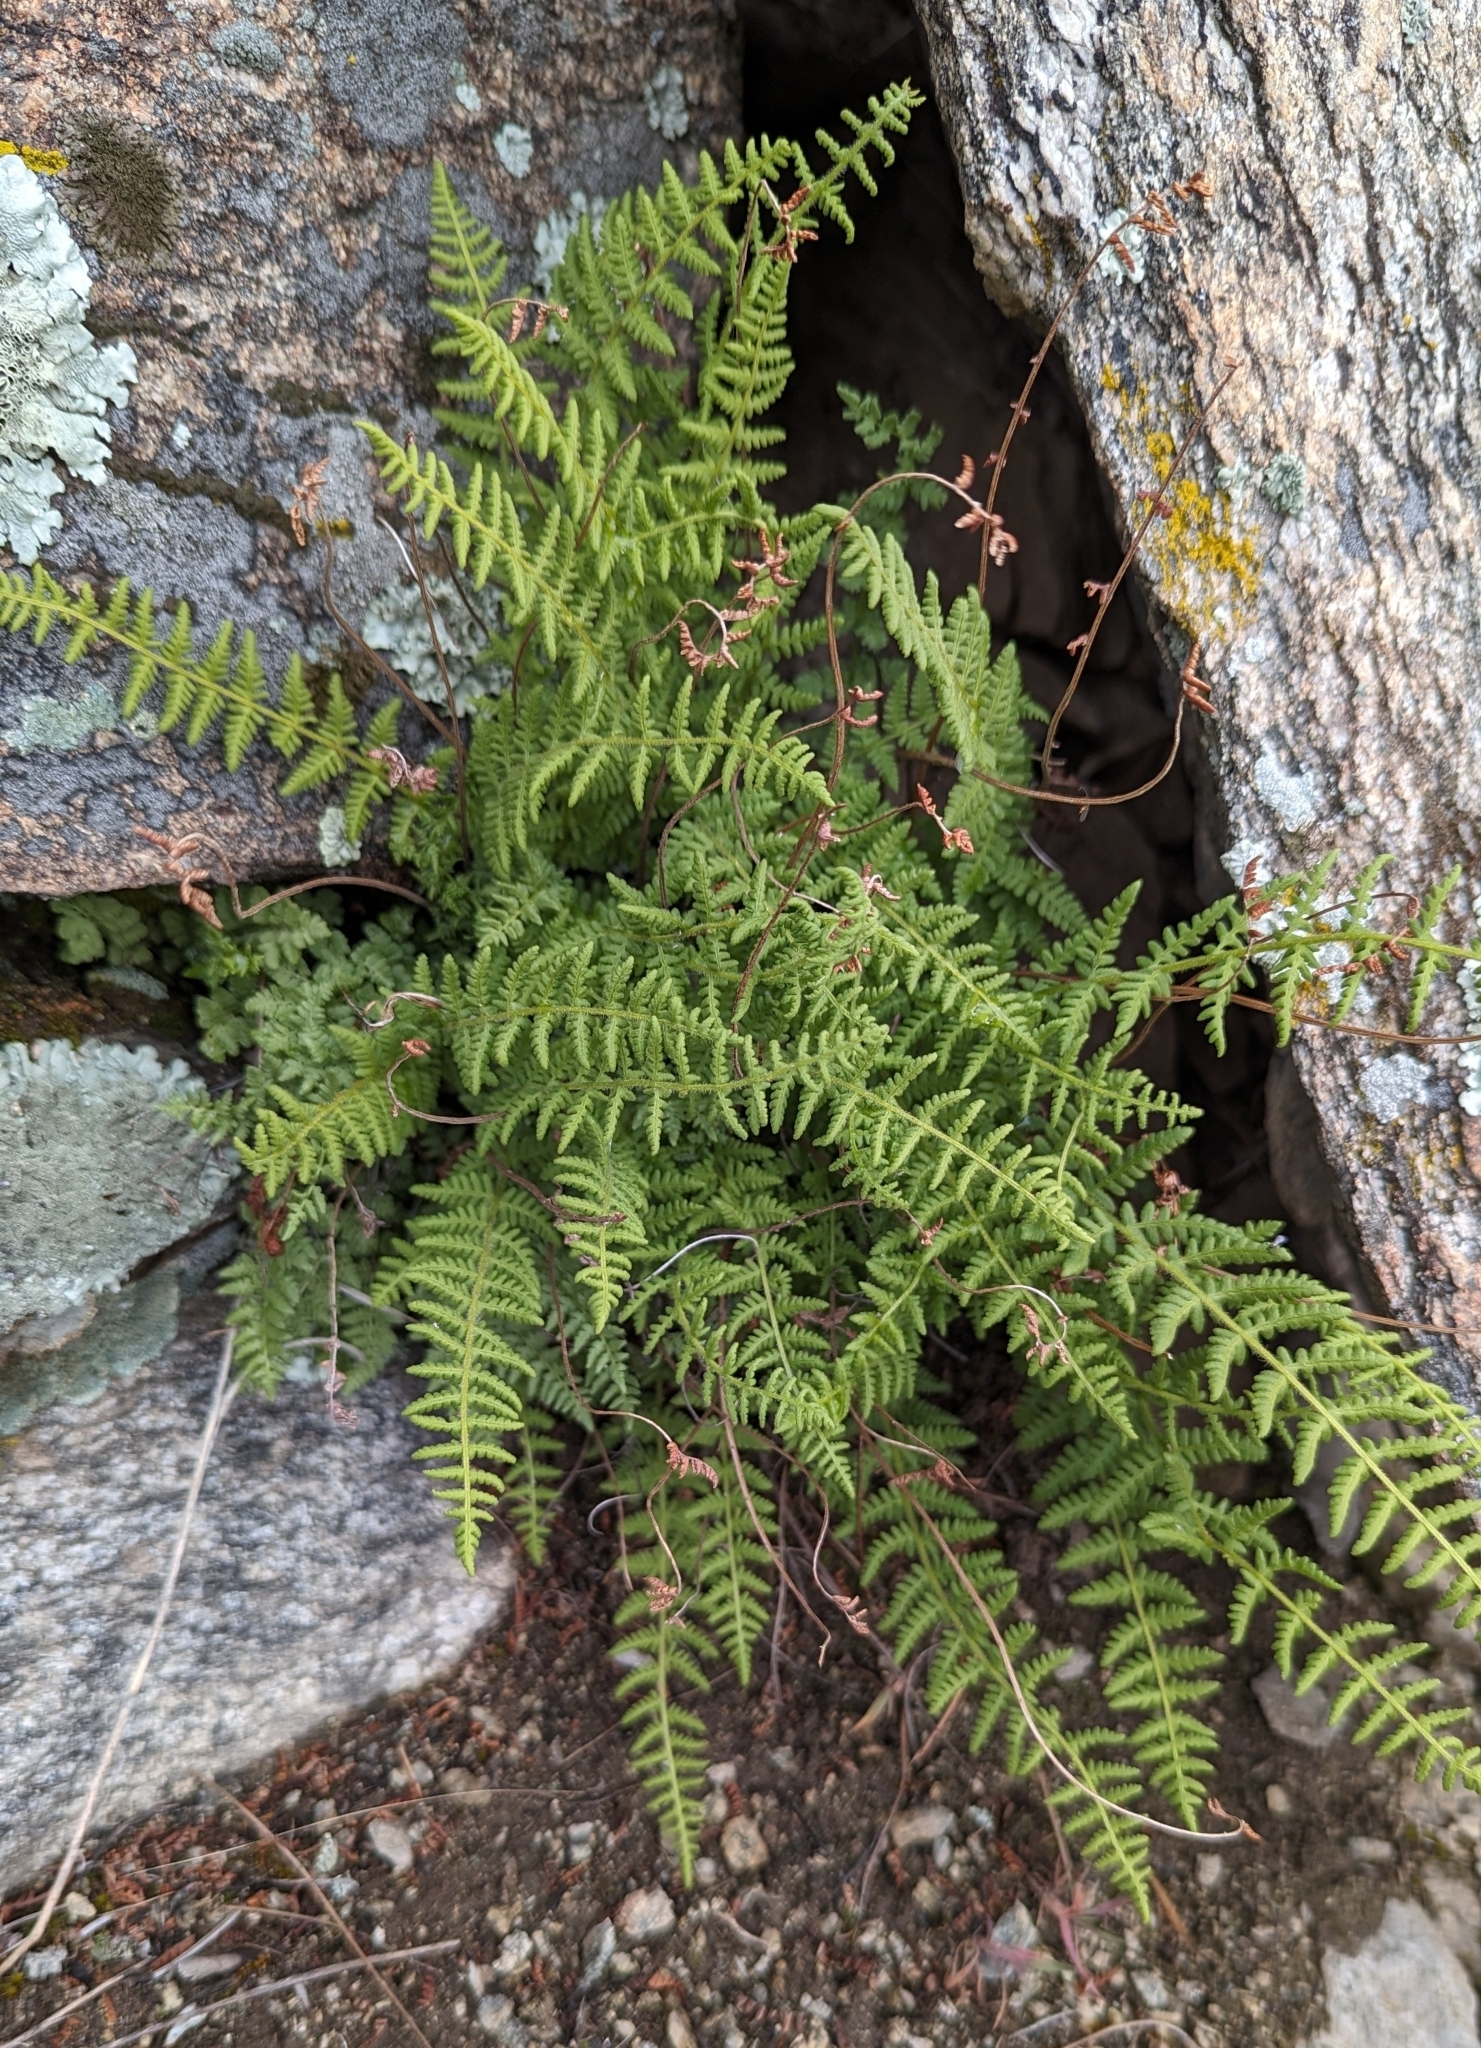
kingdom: Plantae
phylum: Tracheophyta
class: Polypodiopsida
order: Polypodiales
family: Woodsiaceae
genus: Physematium
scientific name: Physematium scopulinum
